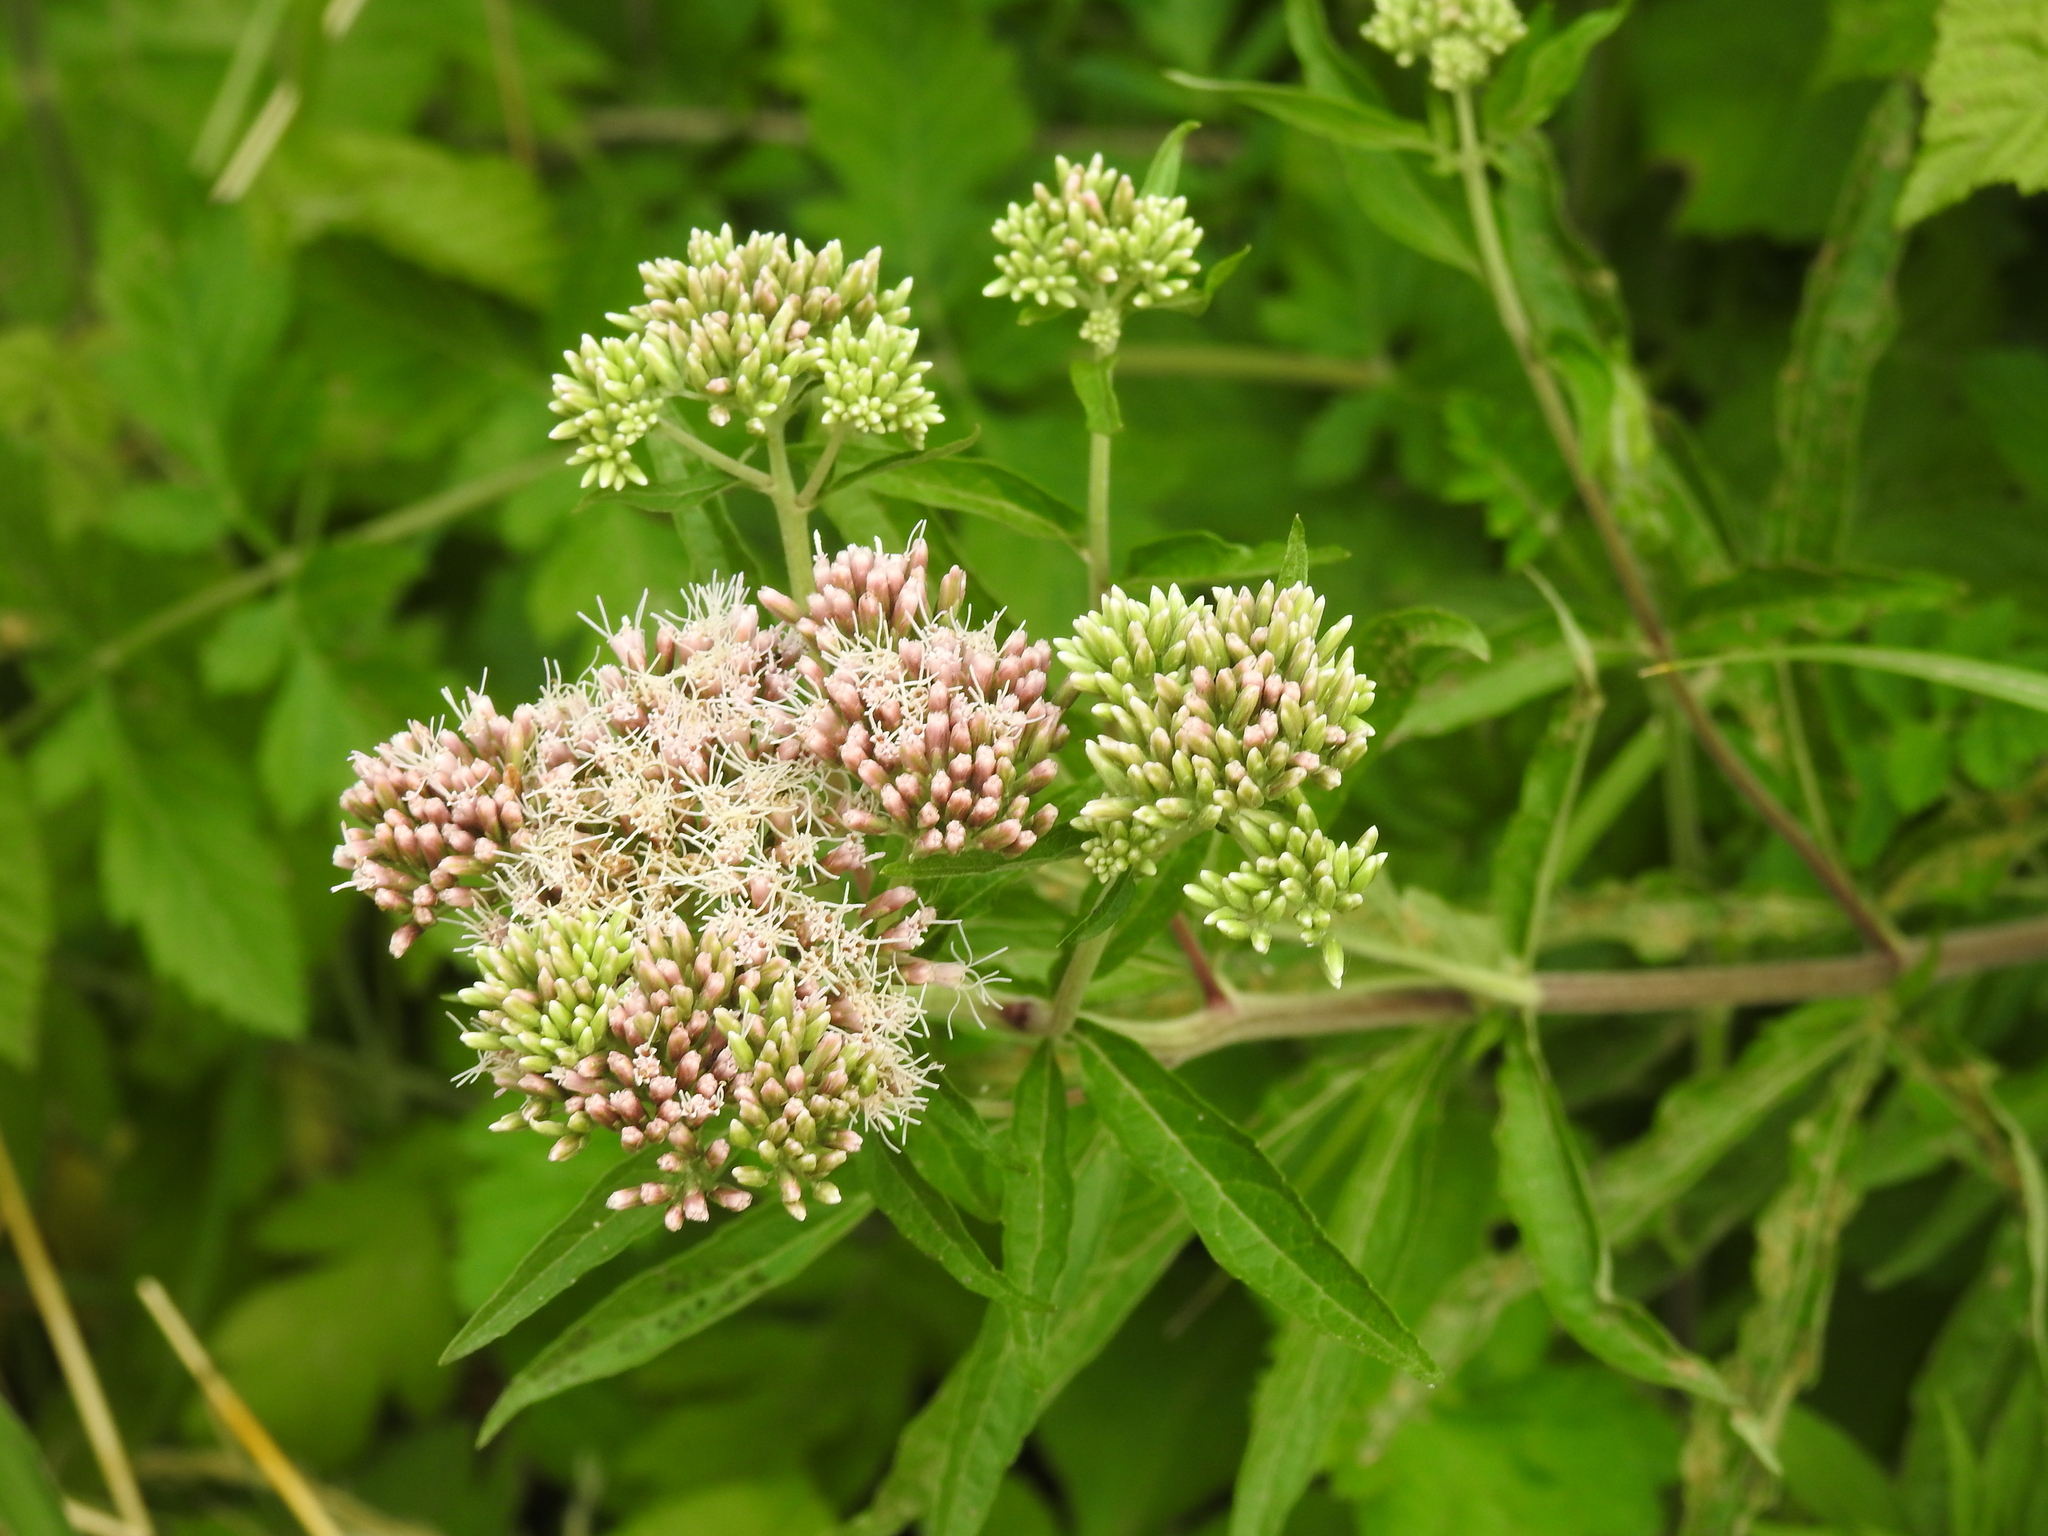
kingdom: Plantae
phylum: Tracheophyta
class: Magnoliopsida
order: Asterales
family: Asteraceae
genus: Eupatorium
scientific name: Eupatorium cannabinum
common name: Hemp-agrimony
